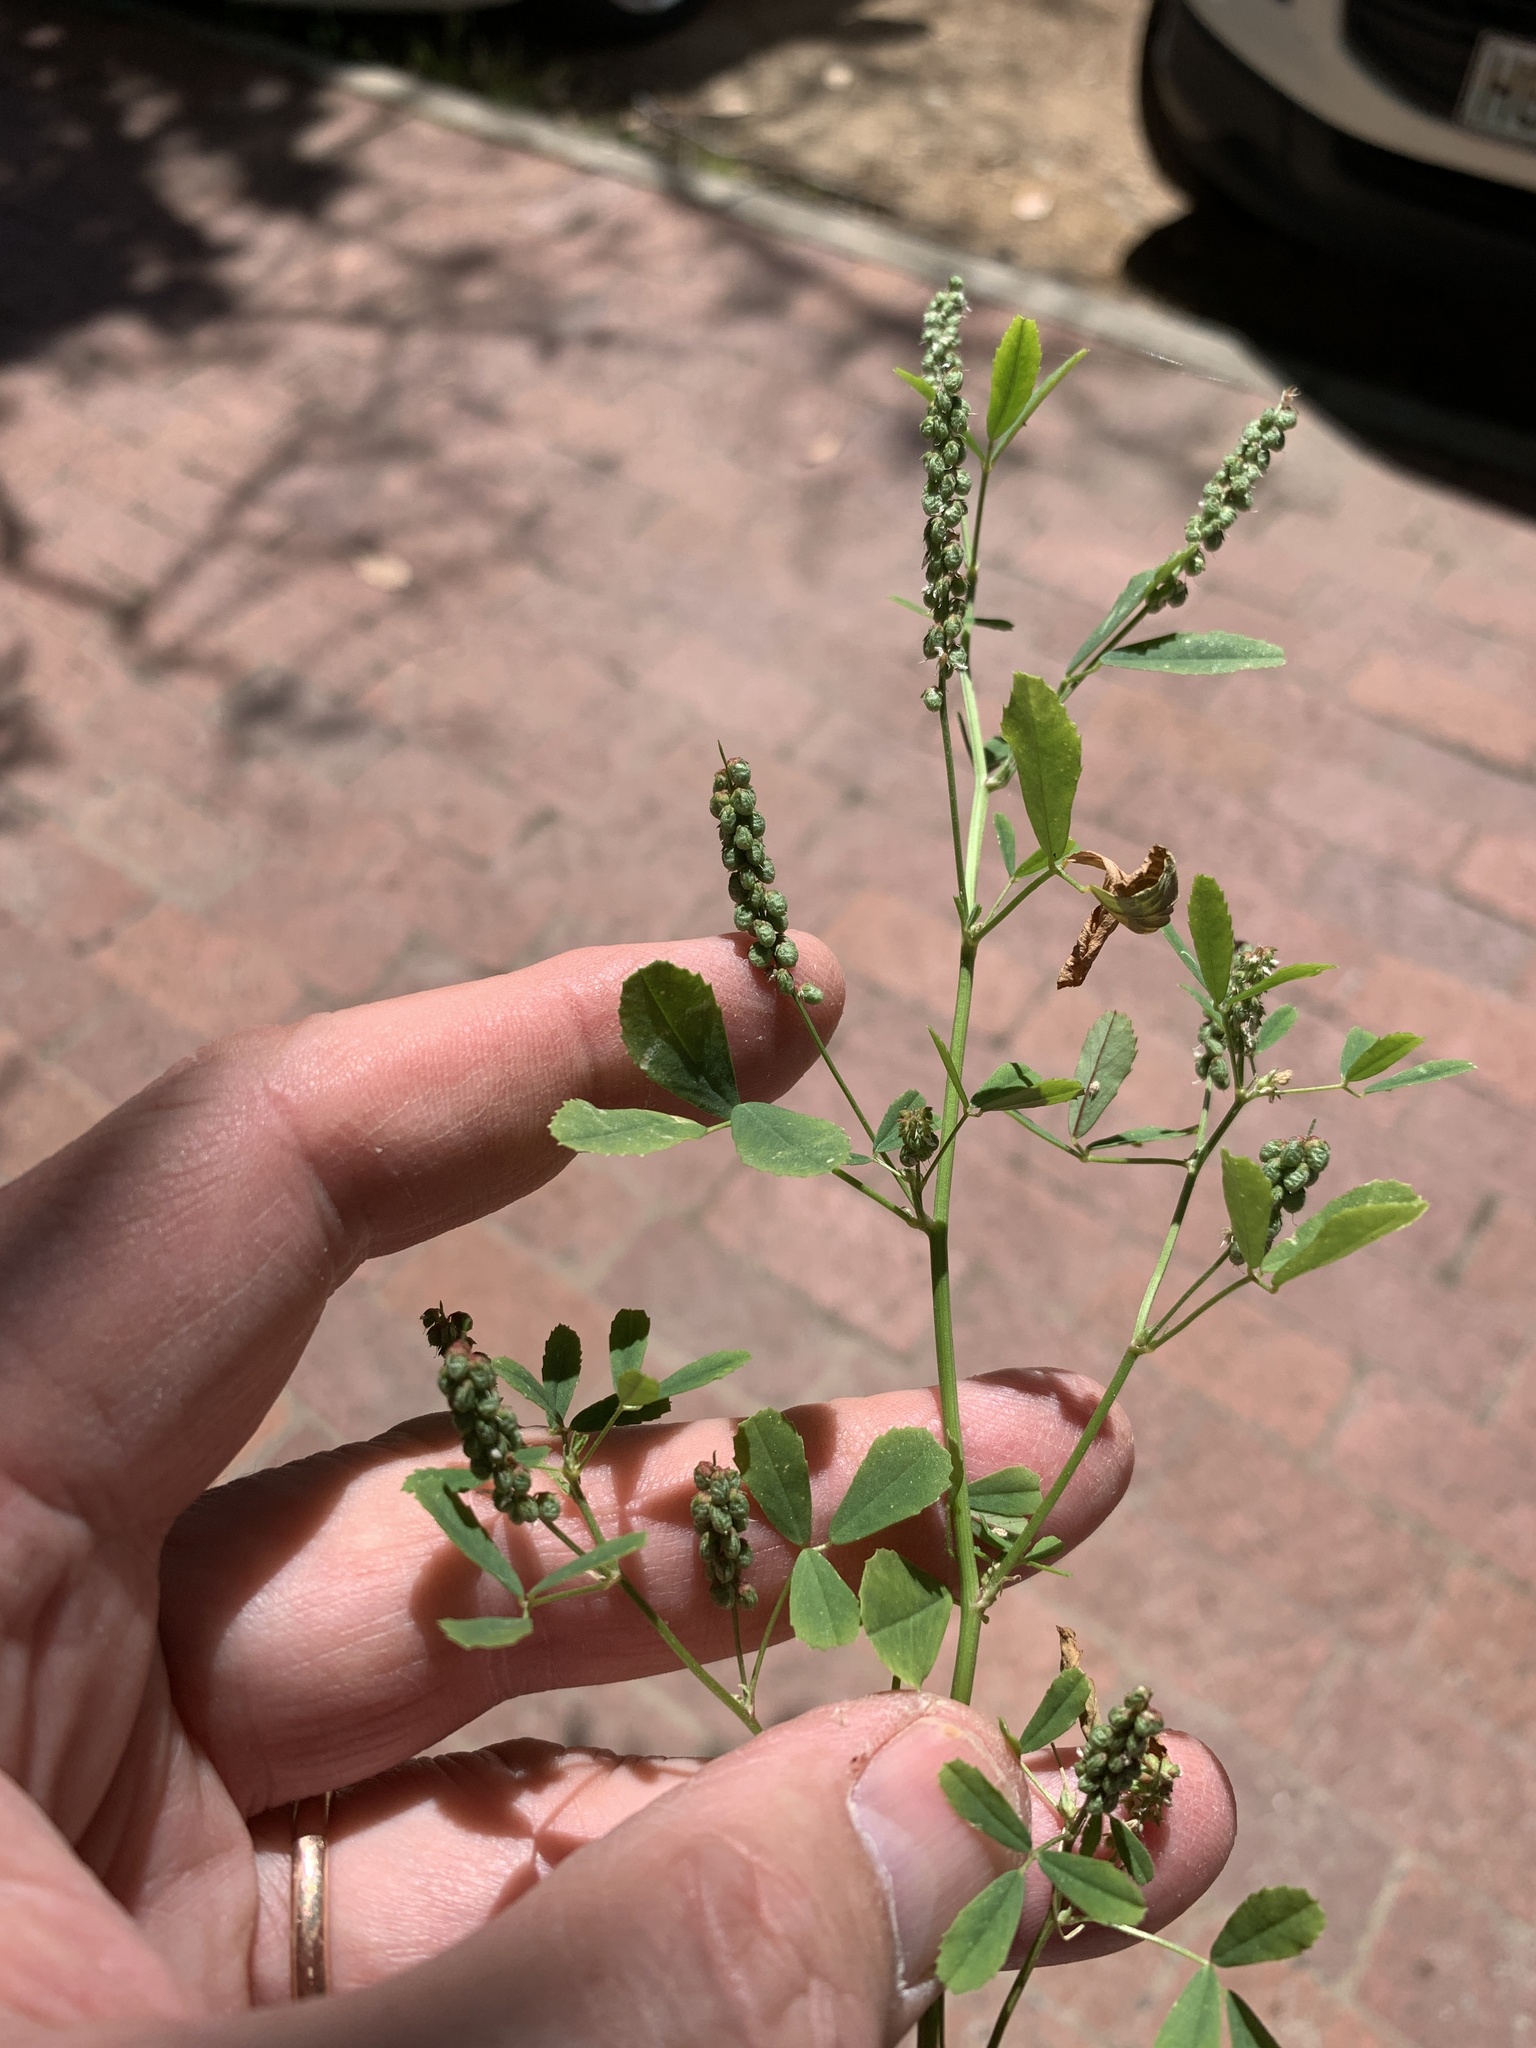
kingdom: Plantae
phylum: Tracheophyta
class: Magnoliopsida
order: Fabales
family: Fabaceae
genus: Melilotus
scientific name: Melilotus indicus
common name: Small melilot
